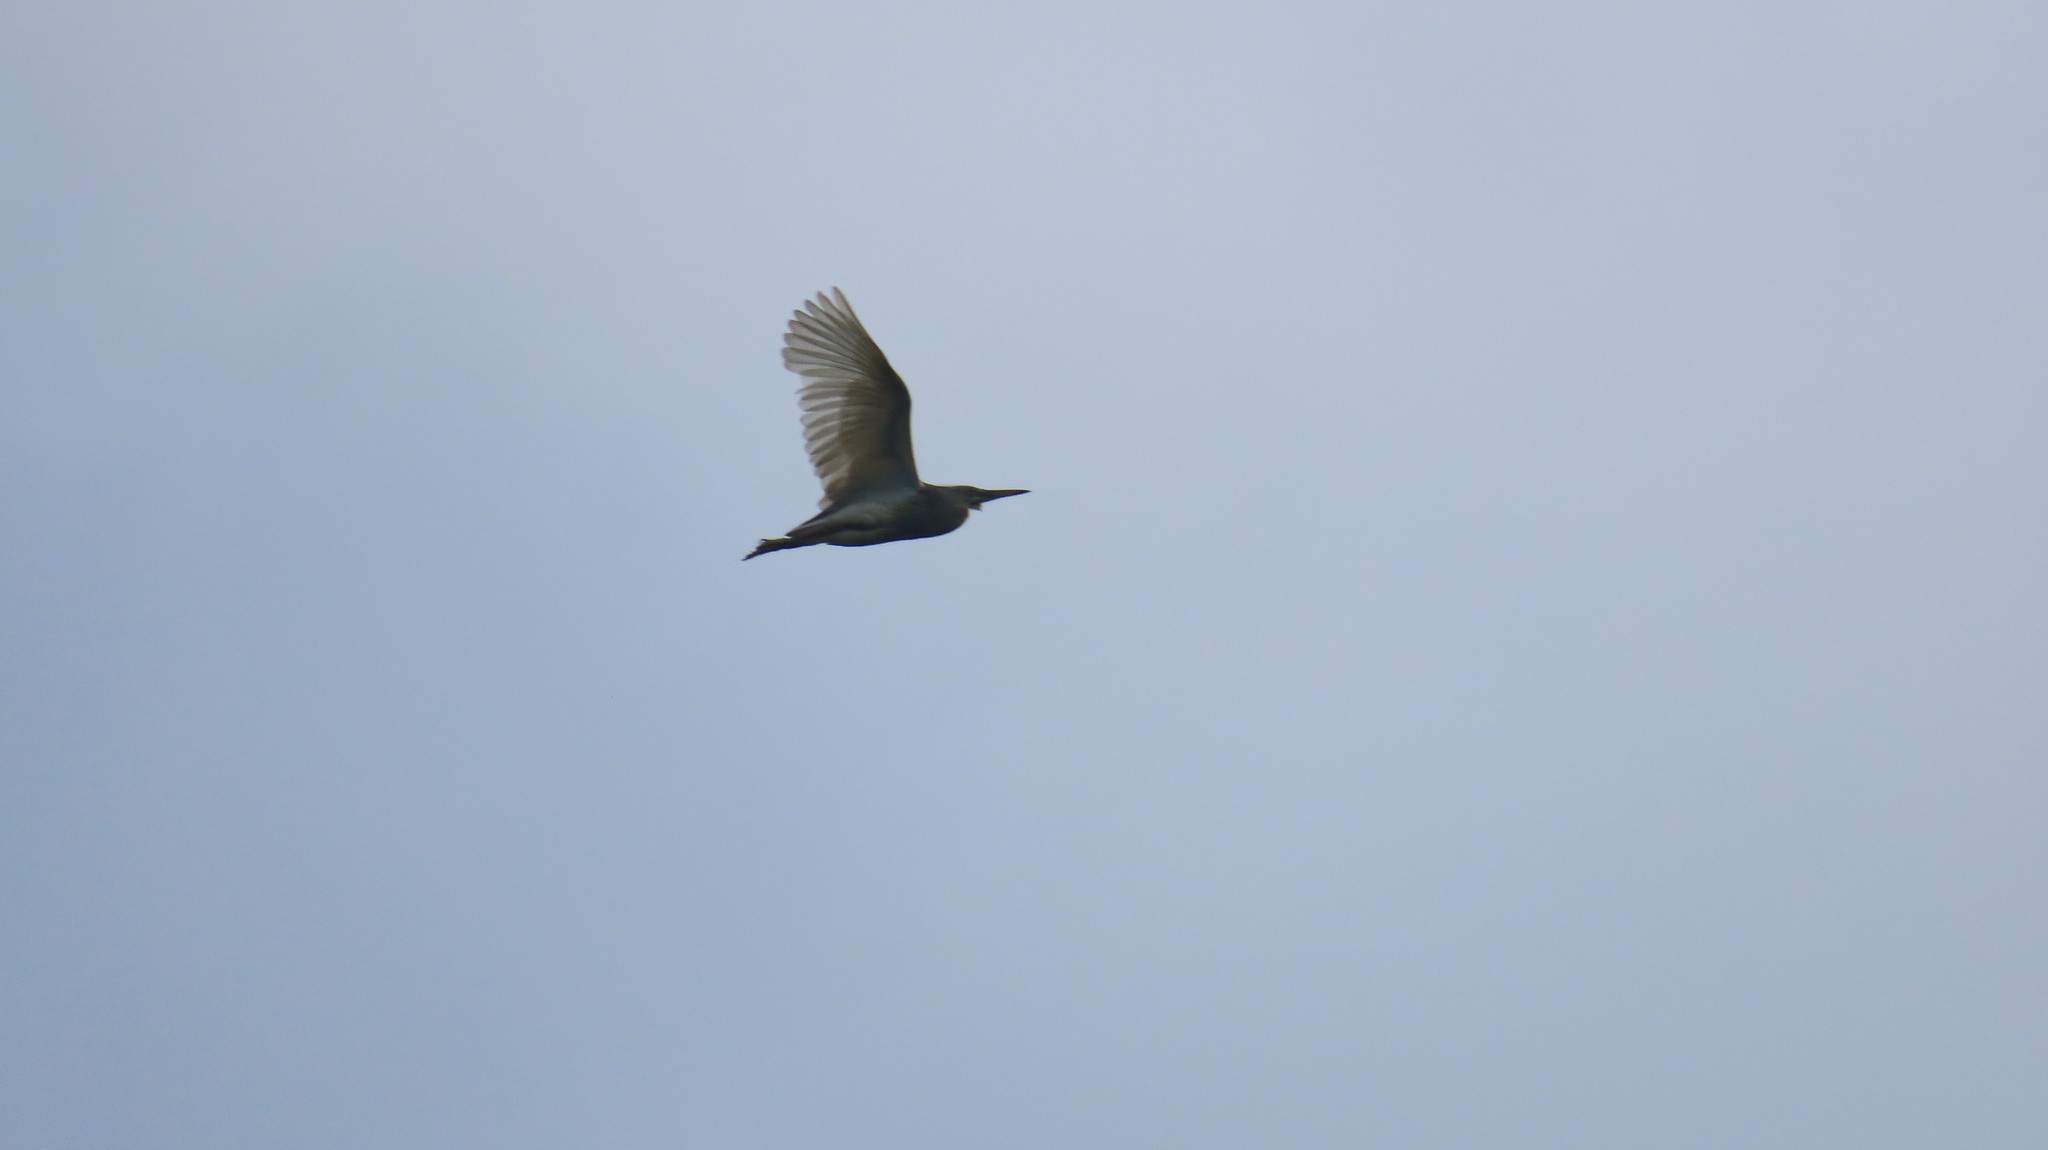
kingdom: Animalia
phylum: Chordata
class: Aves
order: Pelecaniformes
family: Ardeidae
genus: Ardeola
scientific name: Ardeola grayii
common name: Indian pond heron
